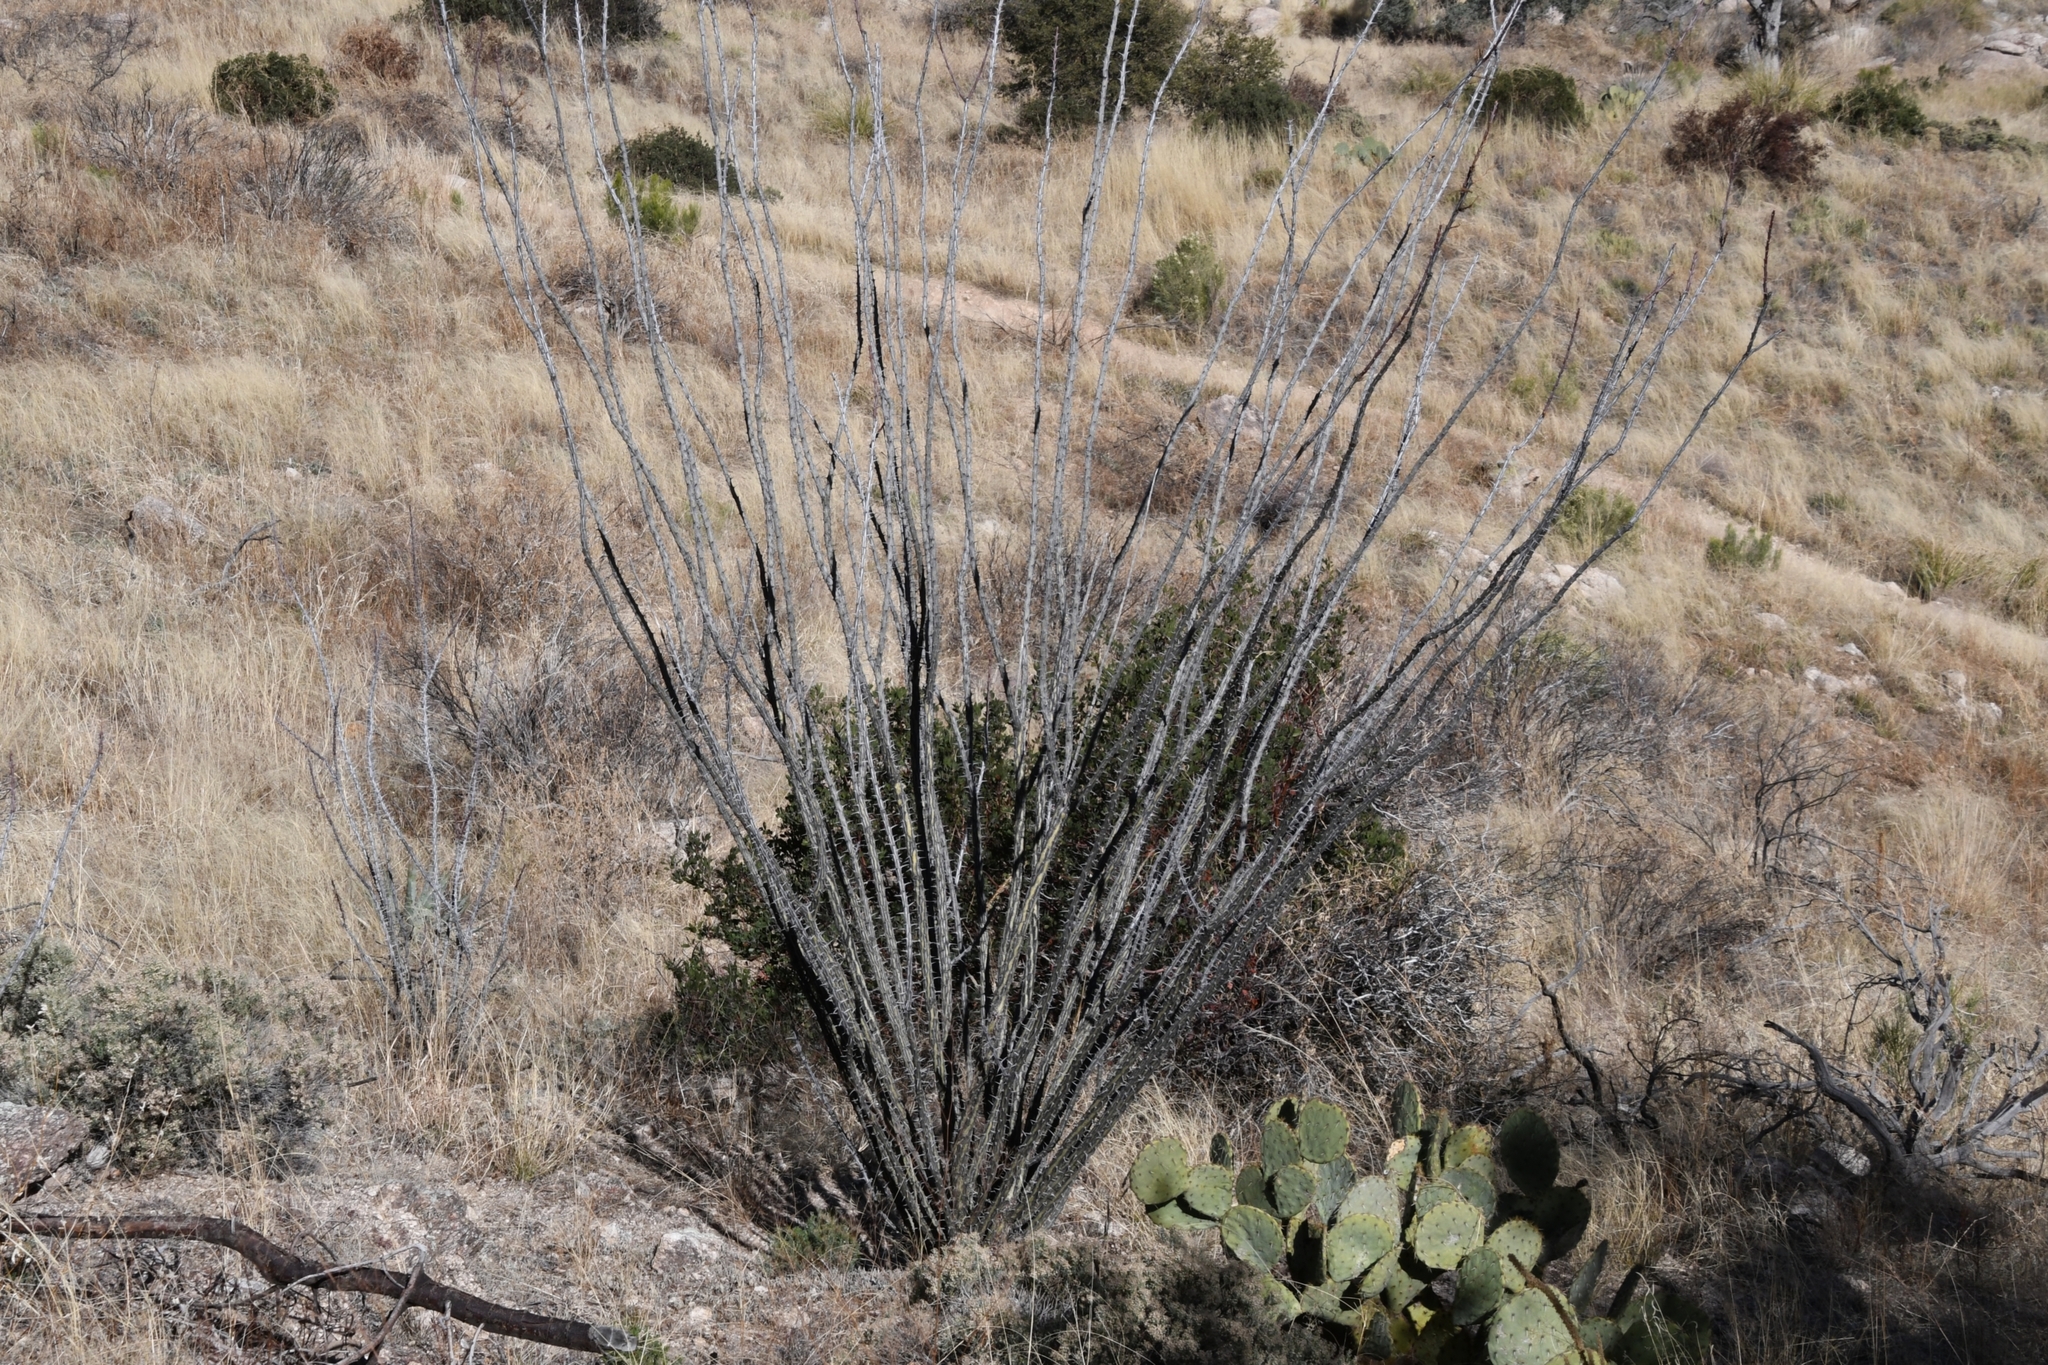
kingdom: Plantae
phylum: Tracheophyta
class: Magnoliopsida
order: Ericales
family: Fouquieriaceae
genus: Fouquieria
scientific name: Fouquieria splendens
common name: Vine-cactus
